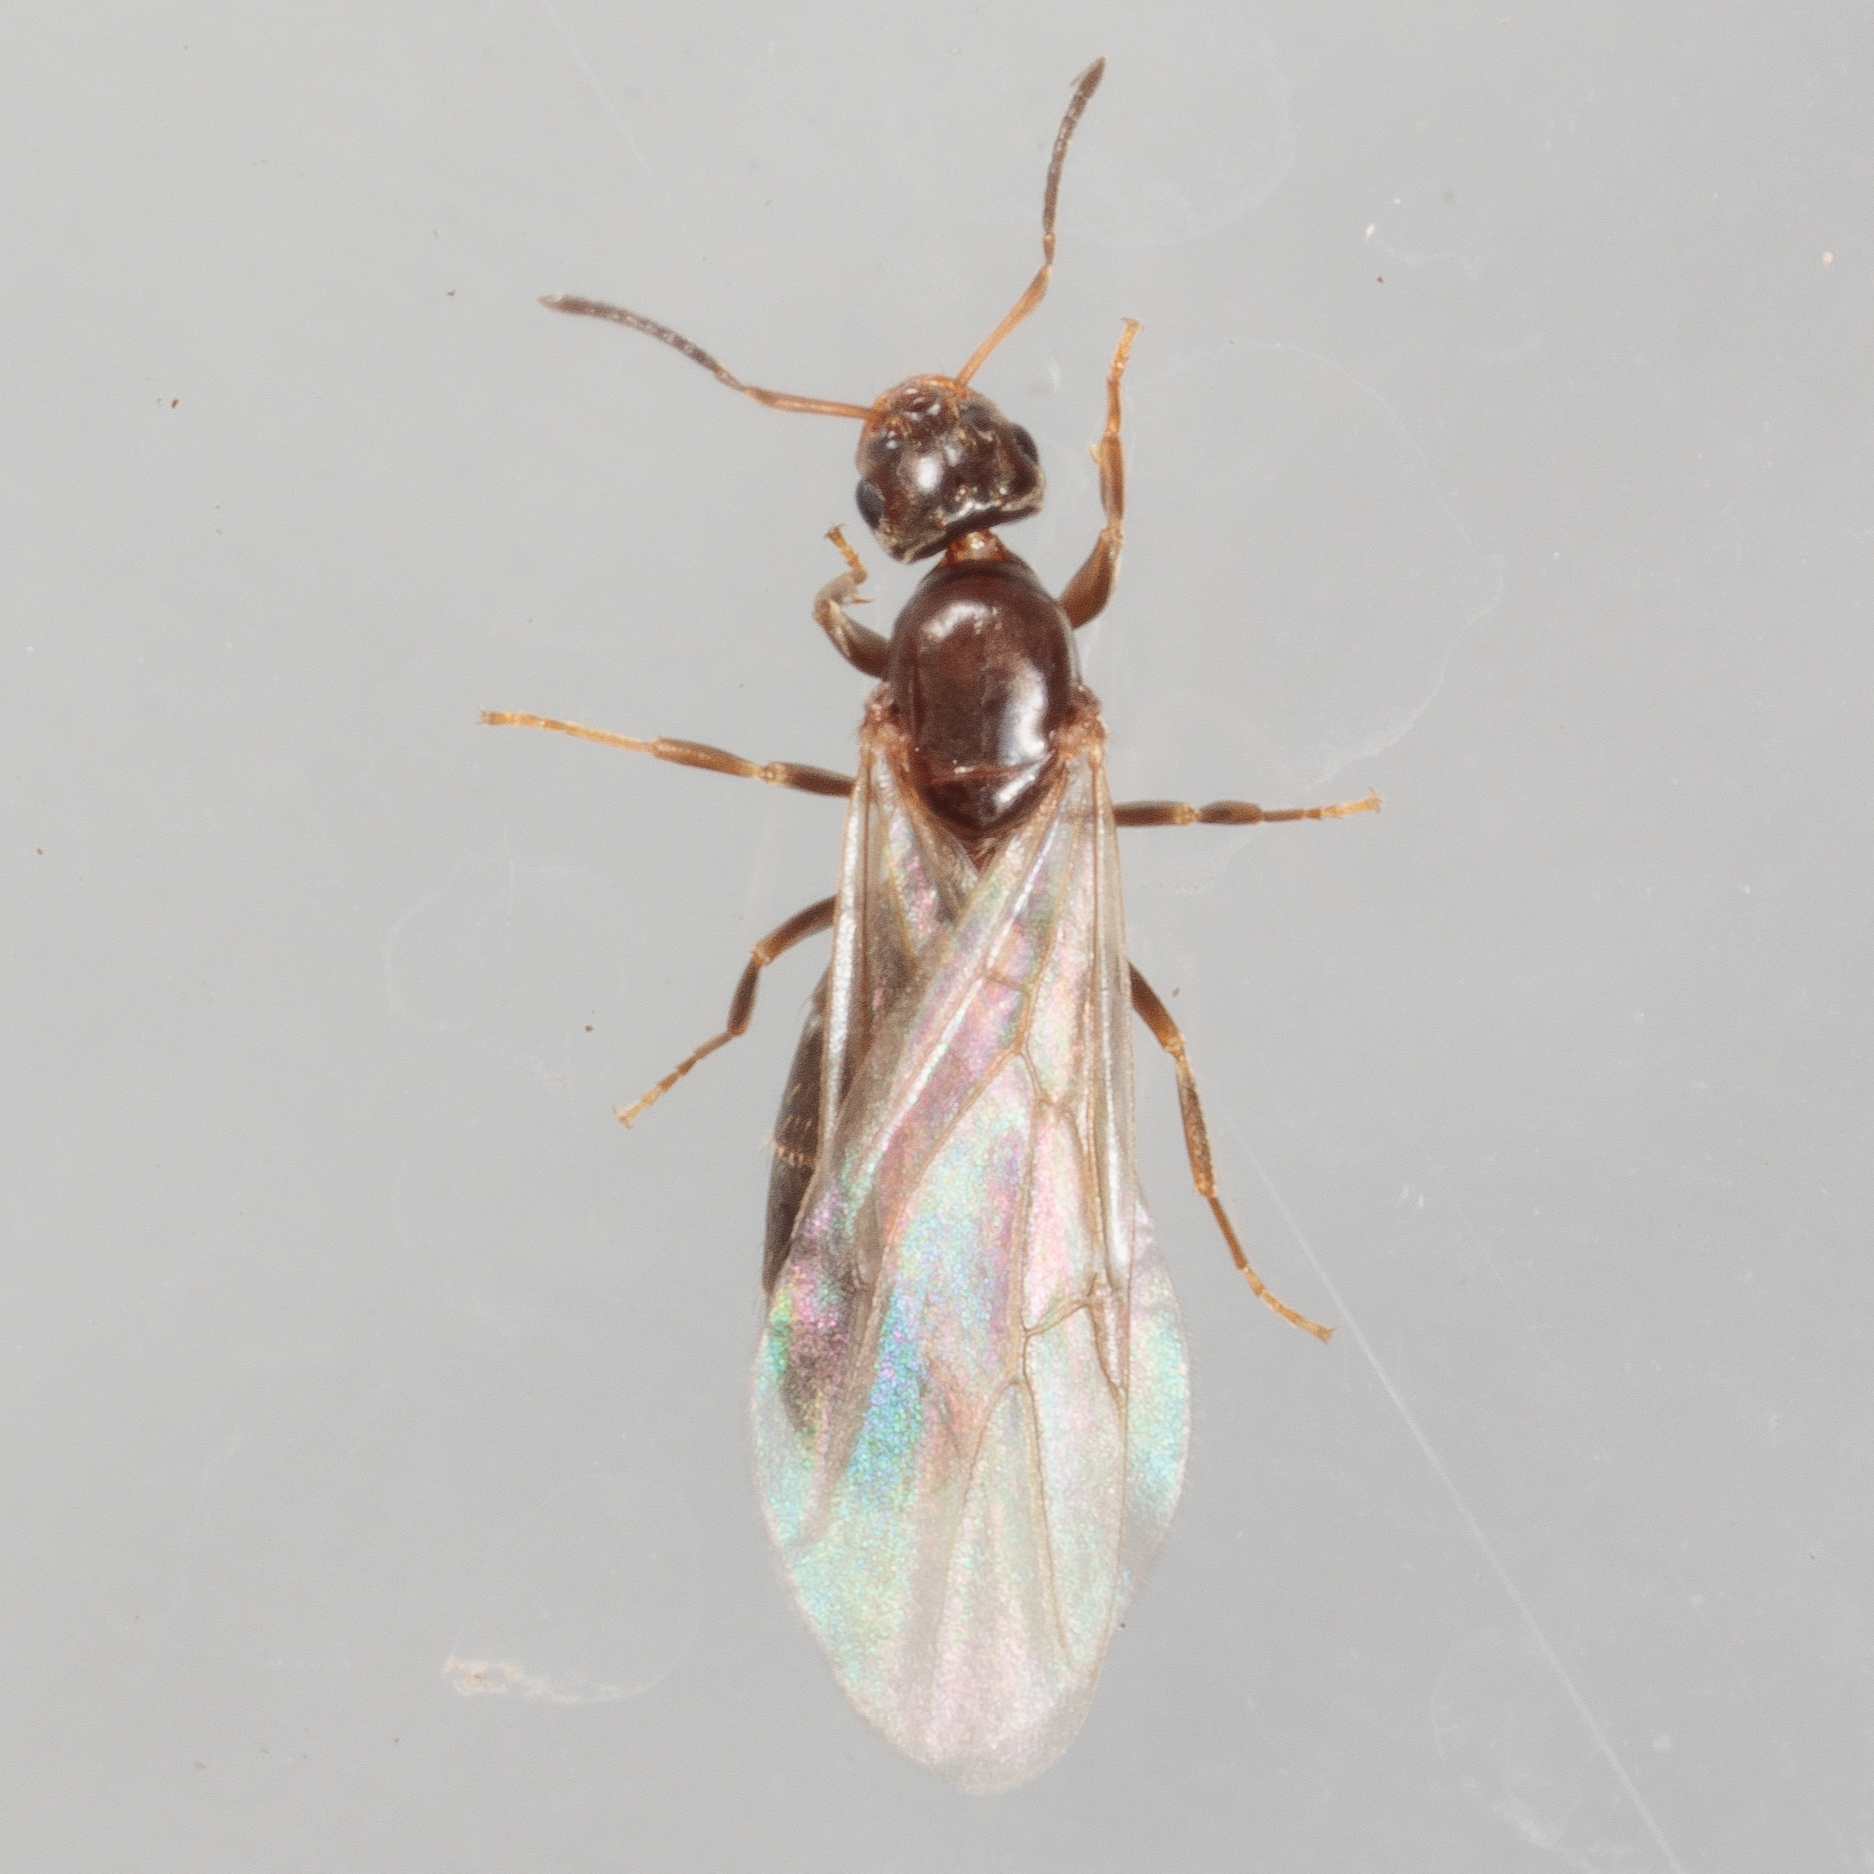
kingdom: Animalia
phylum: Arthropoda
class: Insecta
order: Hymenoptera
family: Formicidae
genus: Brachymyrmex
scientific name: Brachymyrmex patagonicus
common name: Dark rover ant
